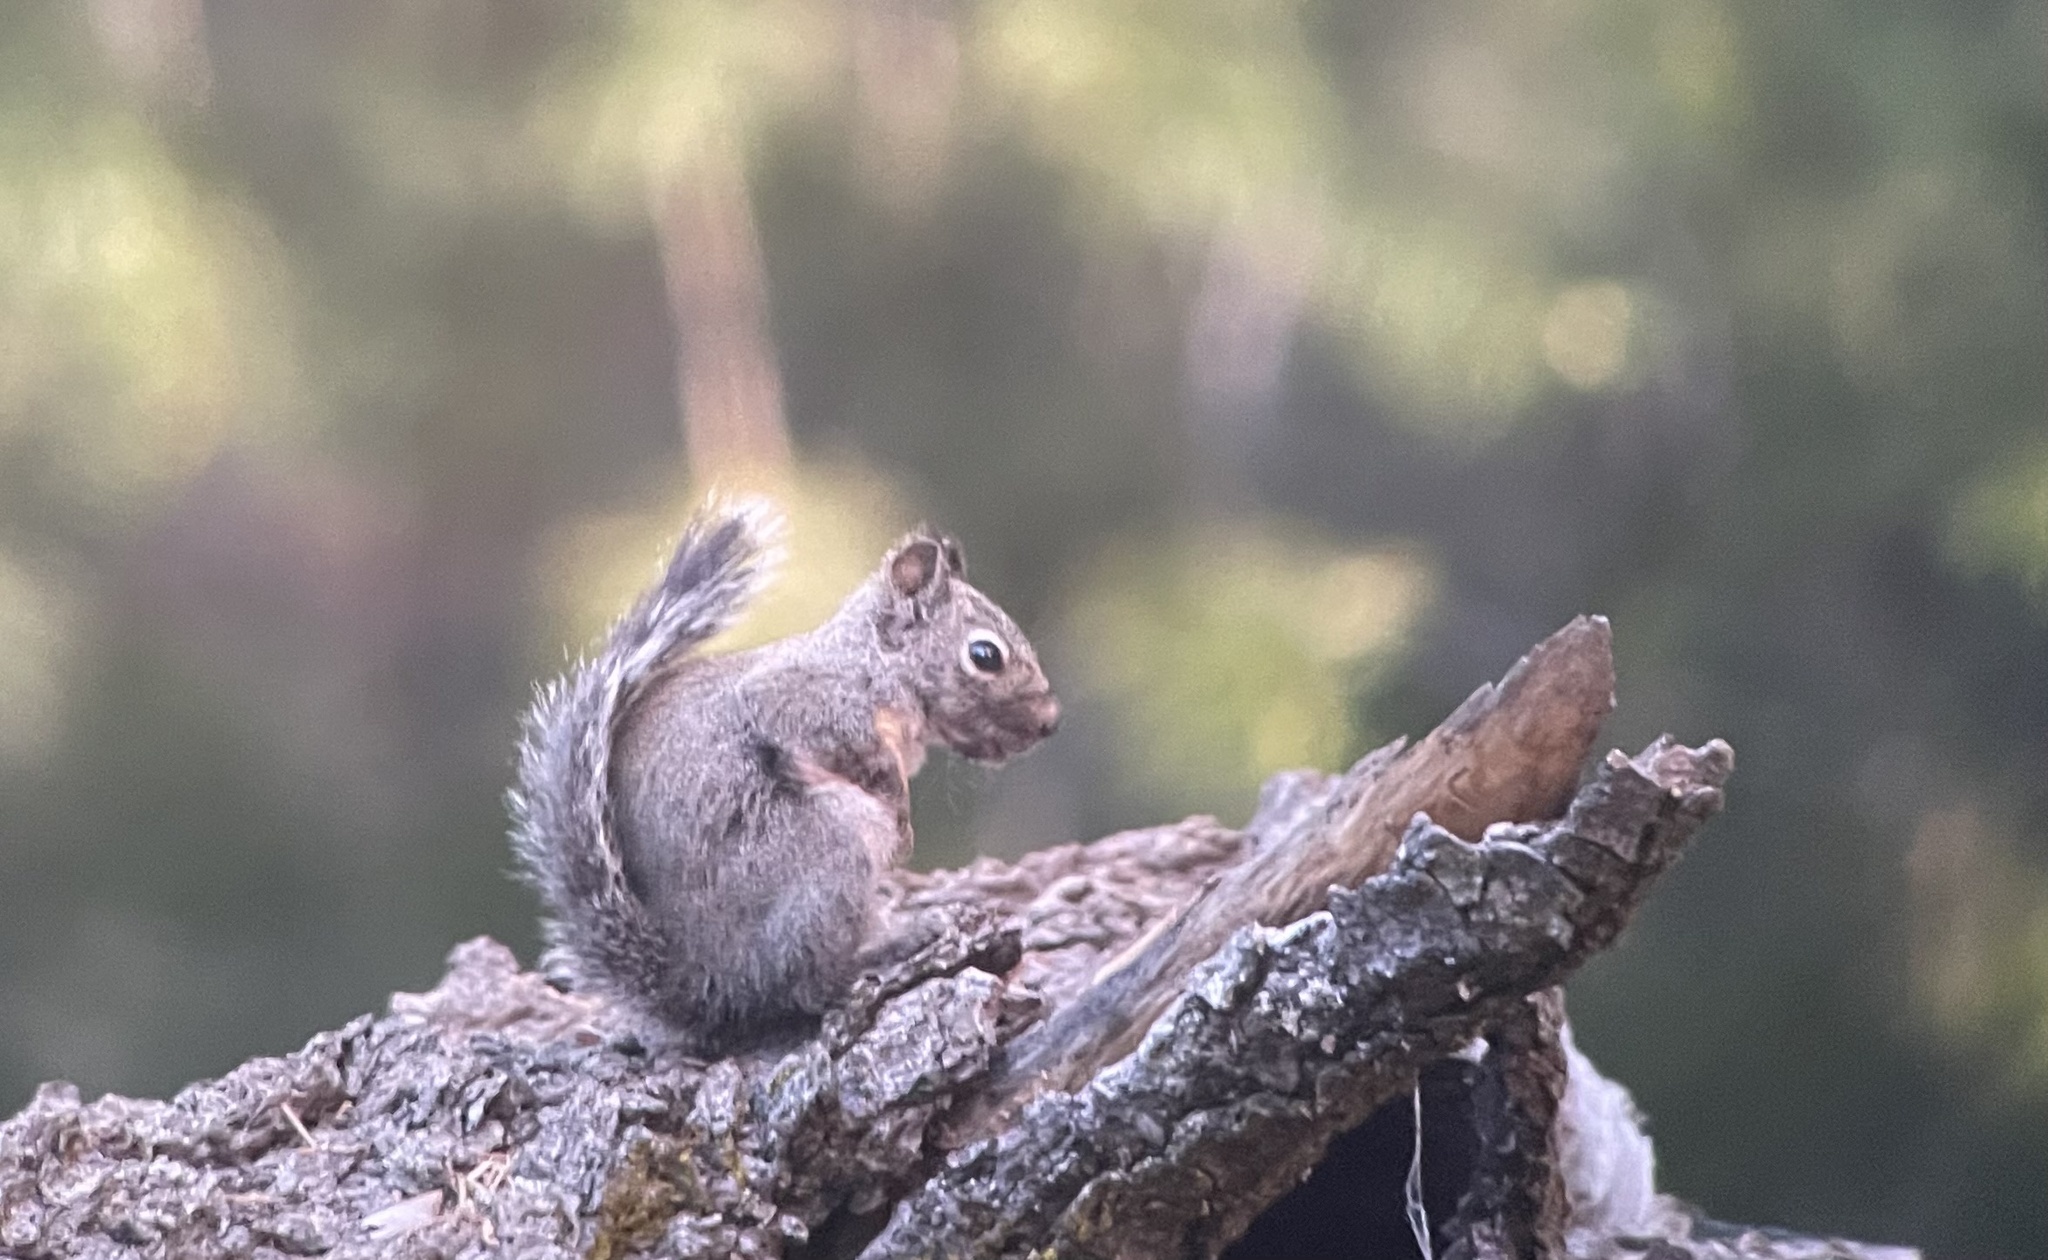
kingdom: Animalia
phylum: Chordata
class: Mammalia
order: Rodentia
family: Sciuridae
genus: Tamiasciurus
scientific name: Tamiasciurus douglasii
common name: Douglas's squirrel
